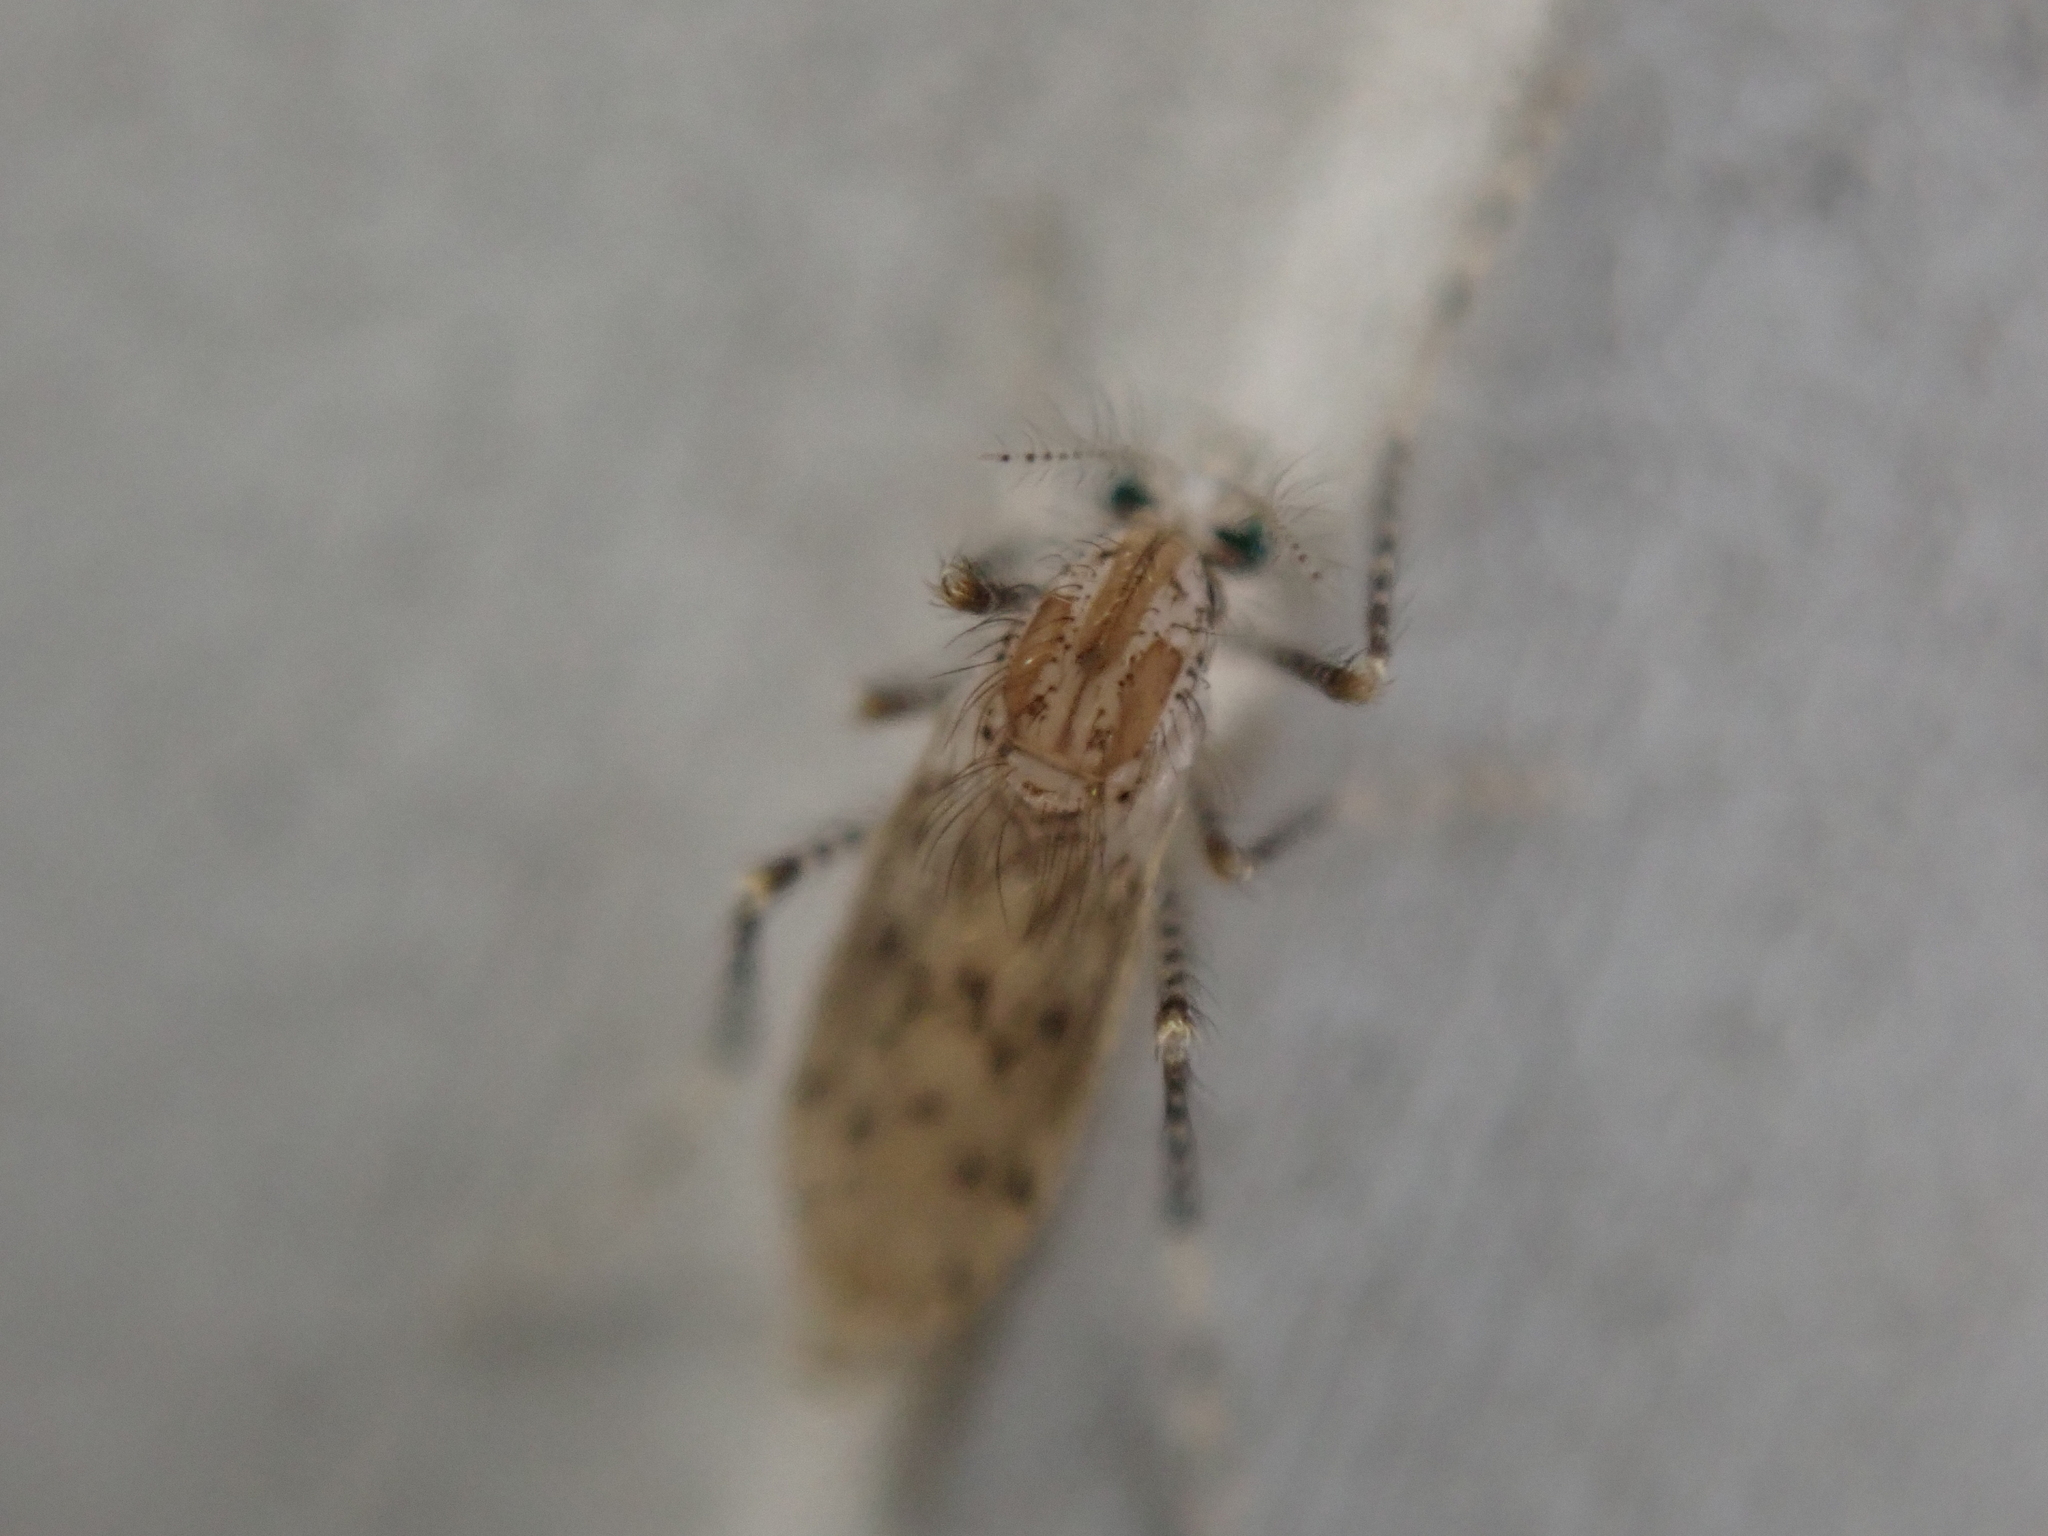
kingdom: Animalia
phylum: Arthropoda
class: Insecta
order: Diptera
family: Chaoboridae
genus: Chaoborus
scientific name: Chaoborus punctipennis
